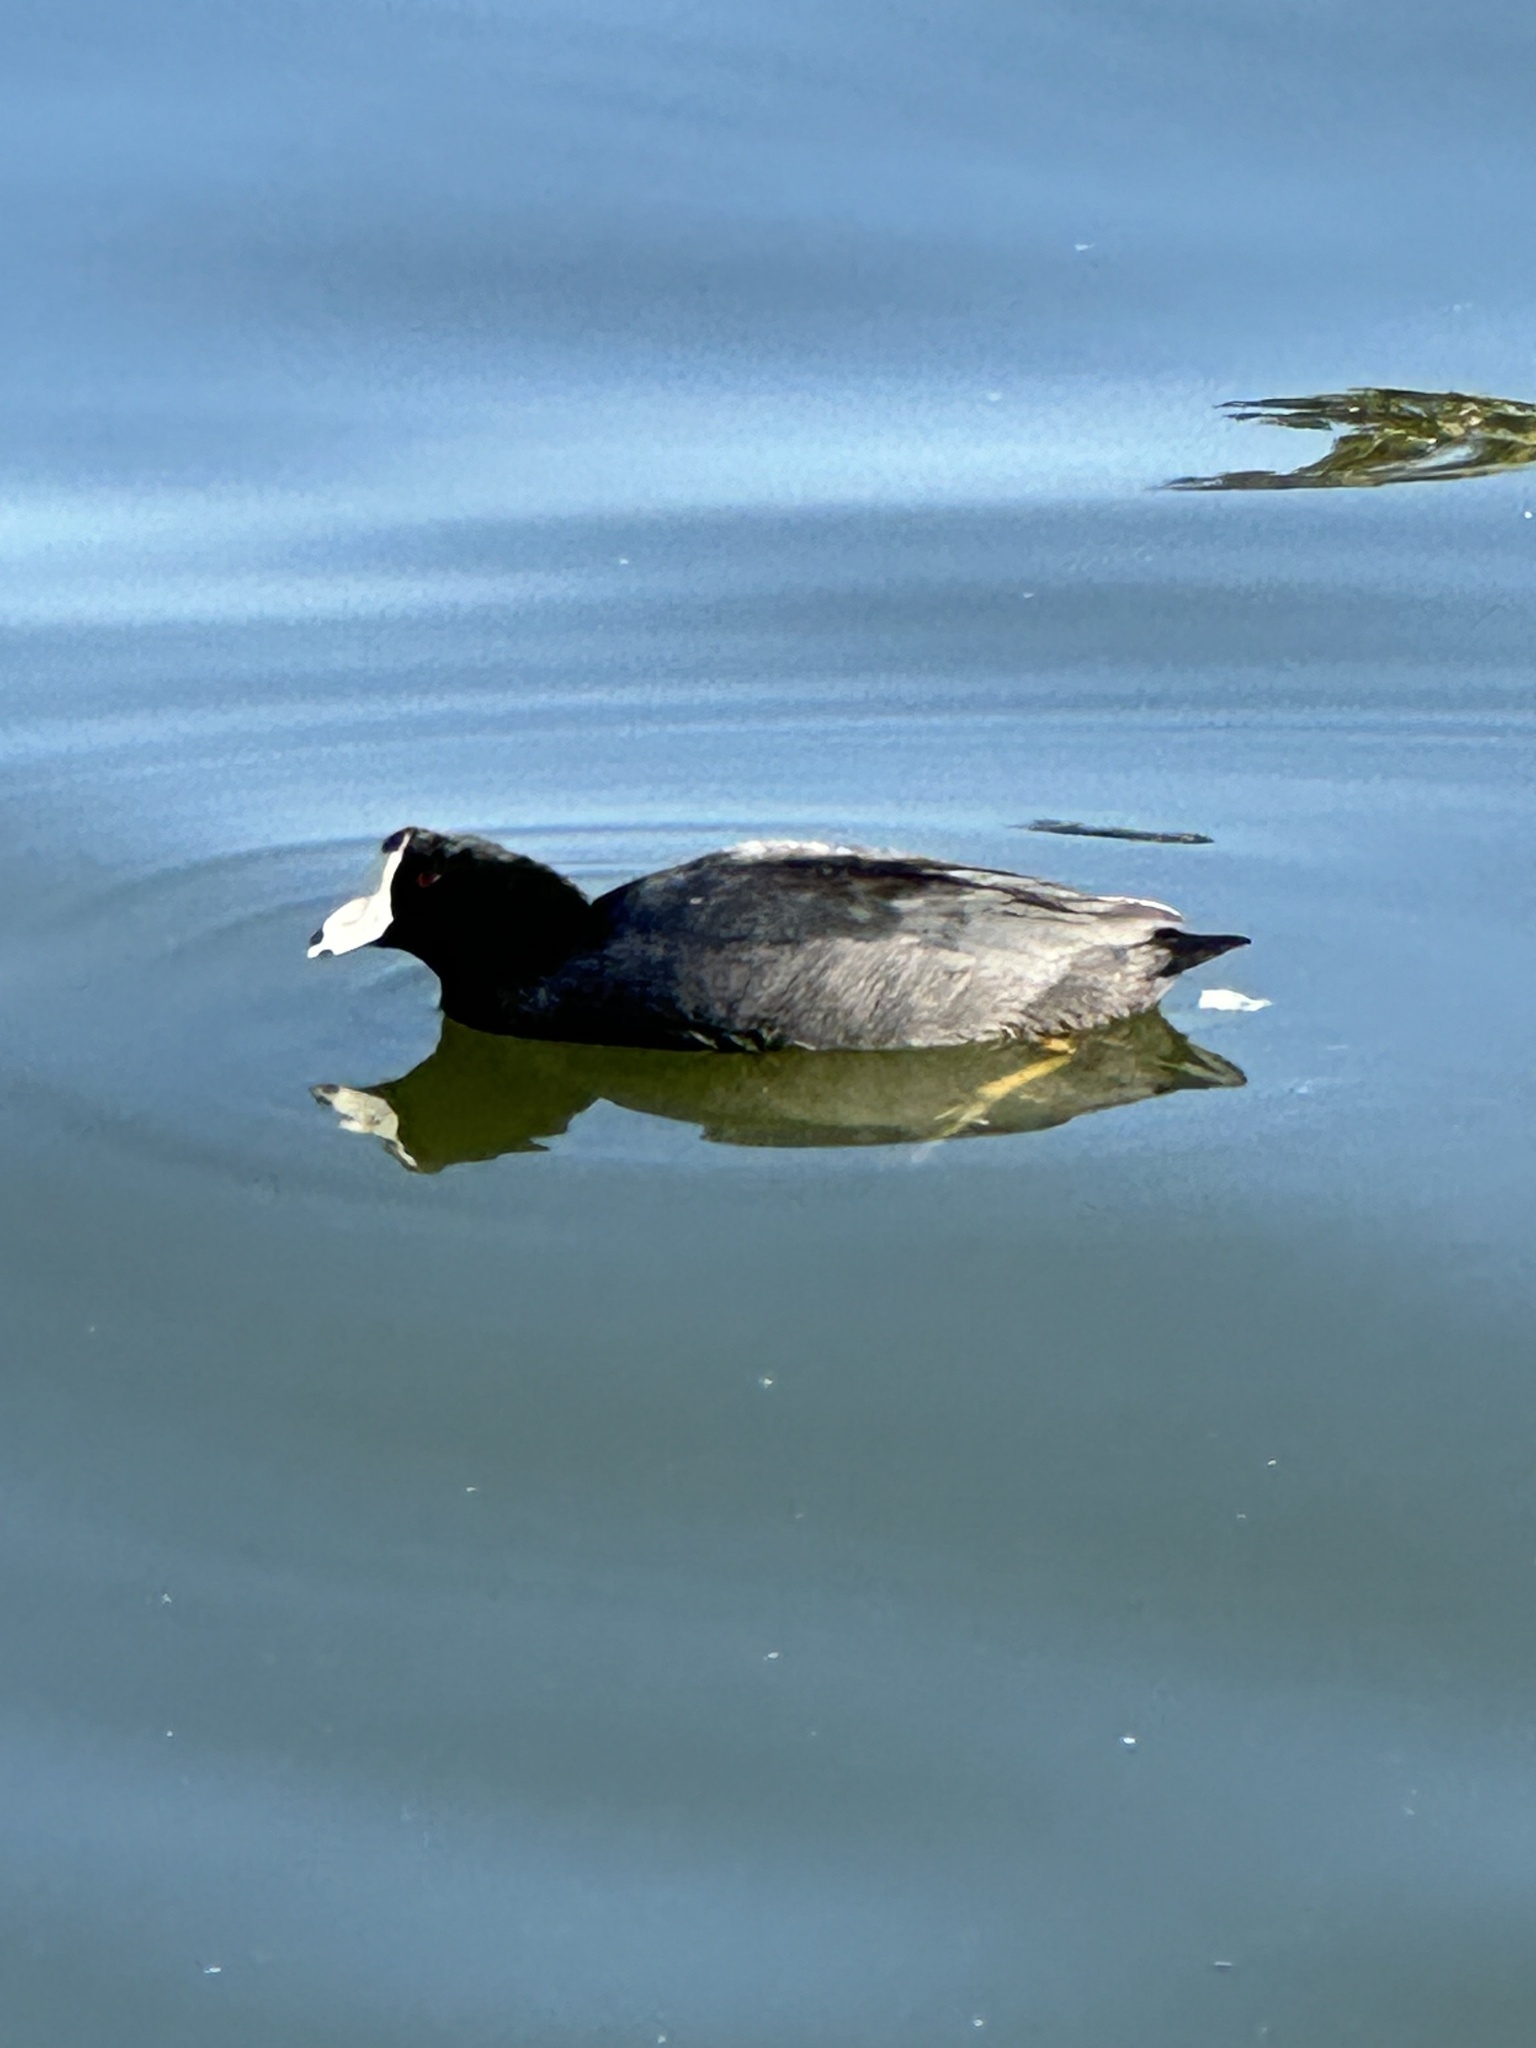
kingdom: Animalia
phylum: Chordata
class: Aves
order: Gruiformes
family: Rallidae
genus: Fulica
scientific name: Fulica americana
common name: American coot
